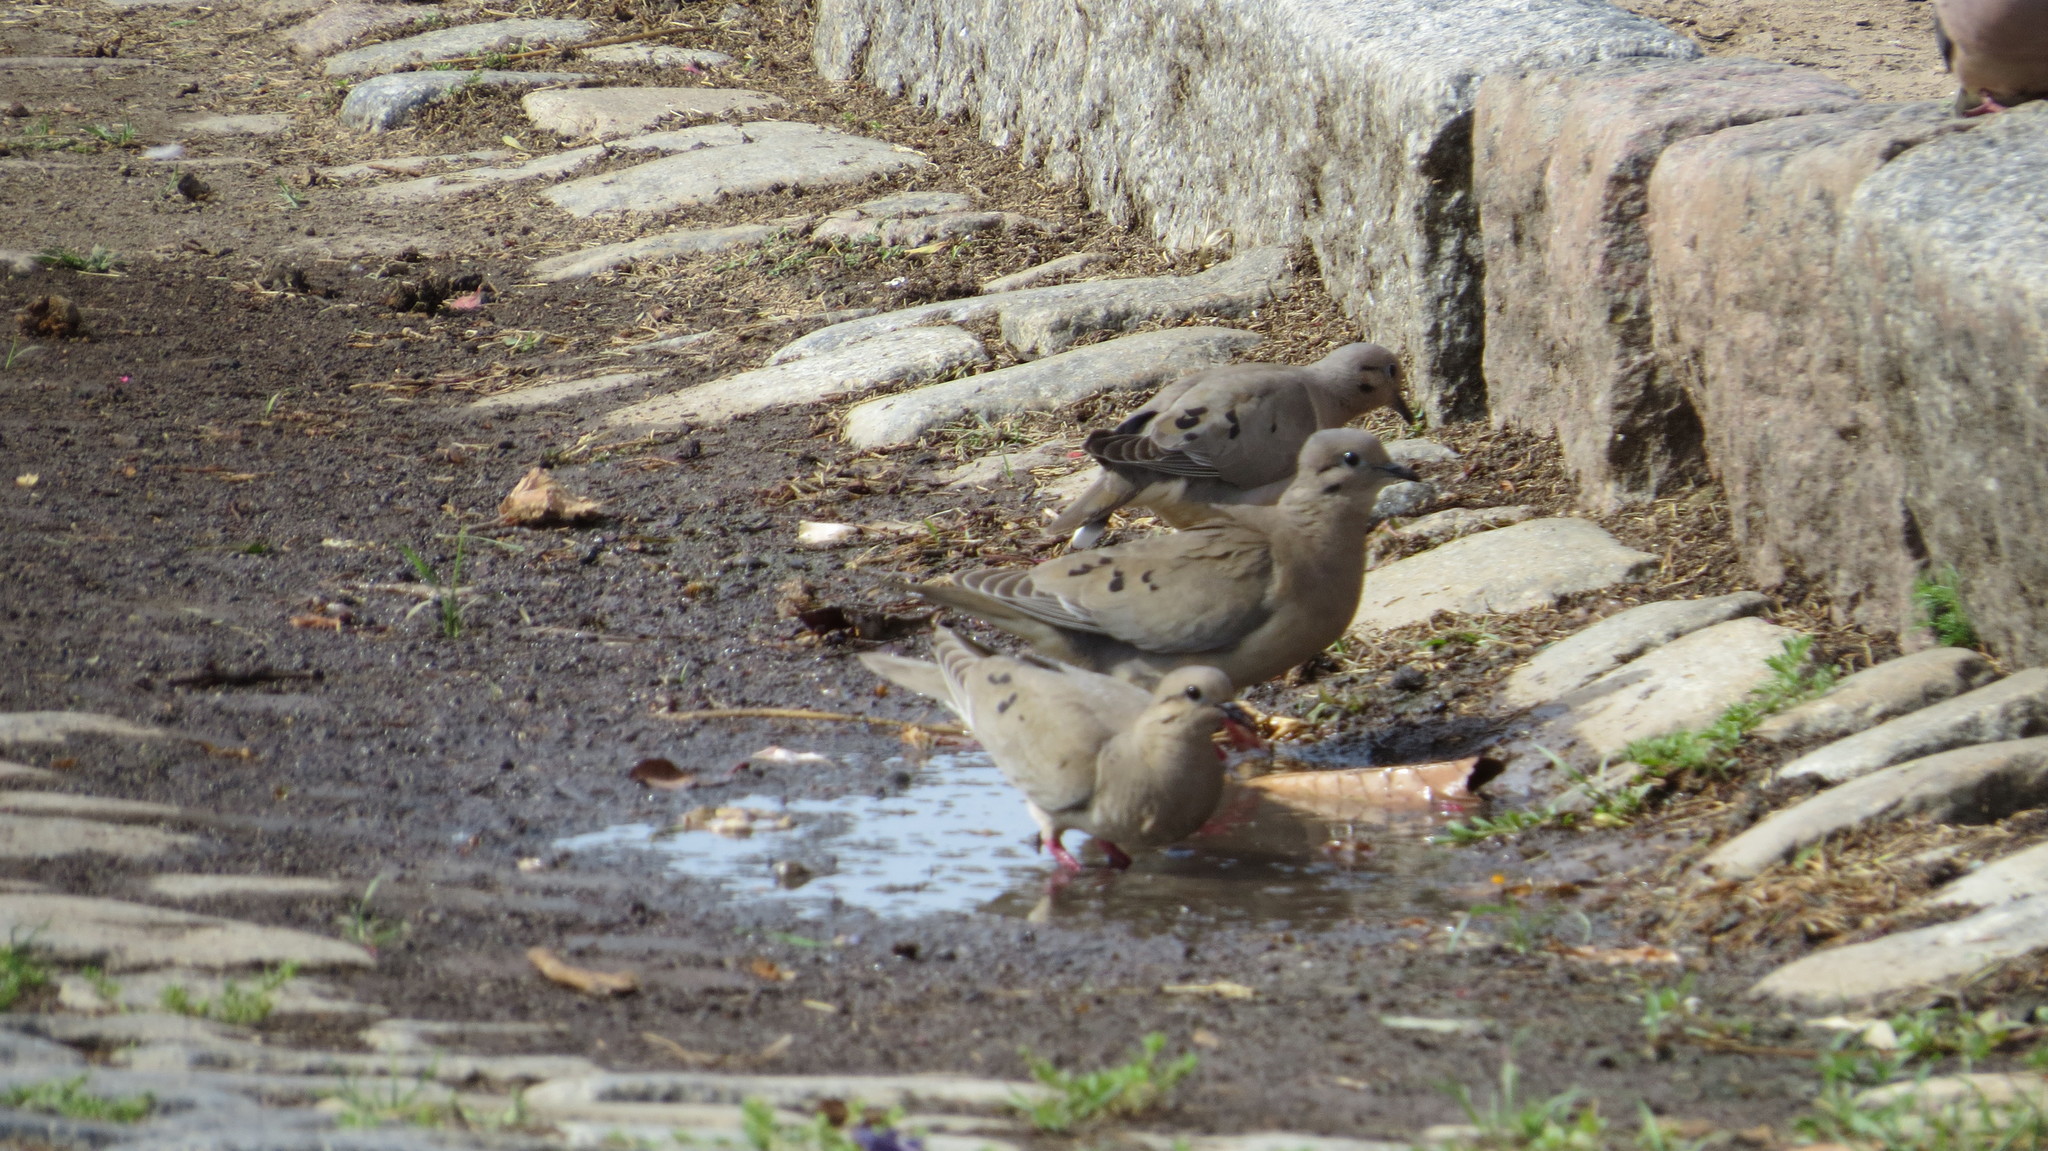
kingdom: Animalia
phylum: Chordata
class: Aves
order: Columbiformes
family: Columbidae
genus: Zenaida
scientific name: Zenaida auriculata
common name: Eared dove
